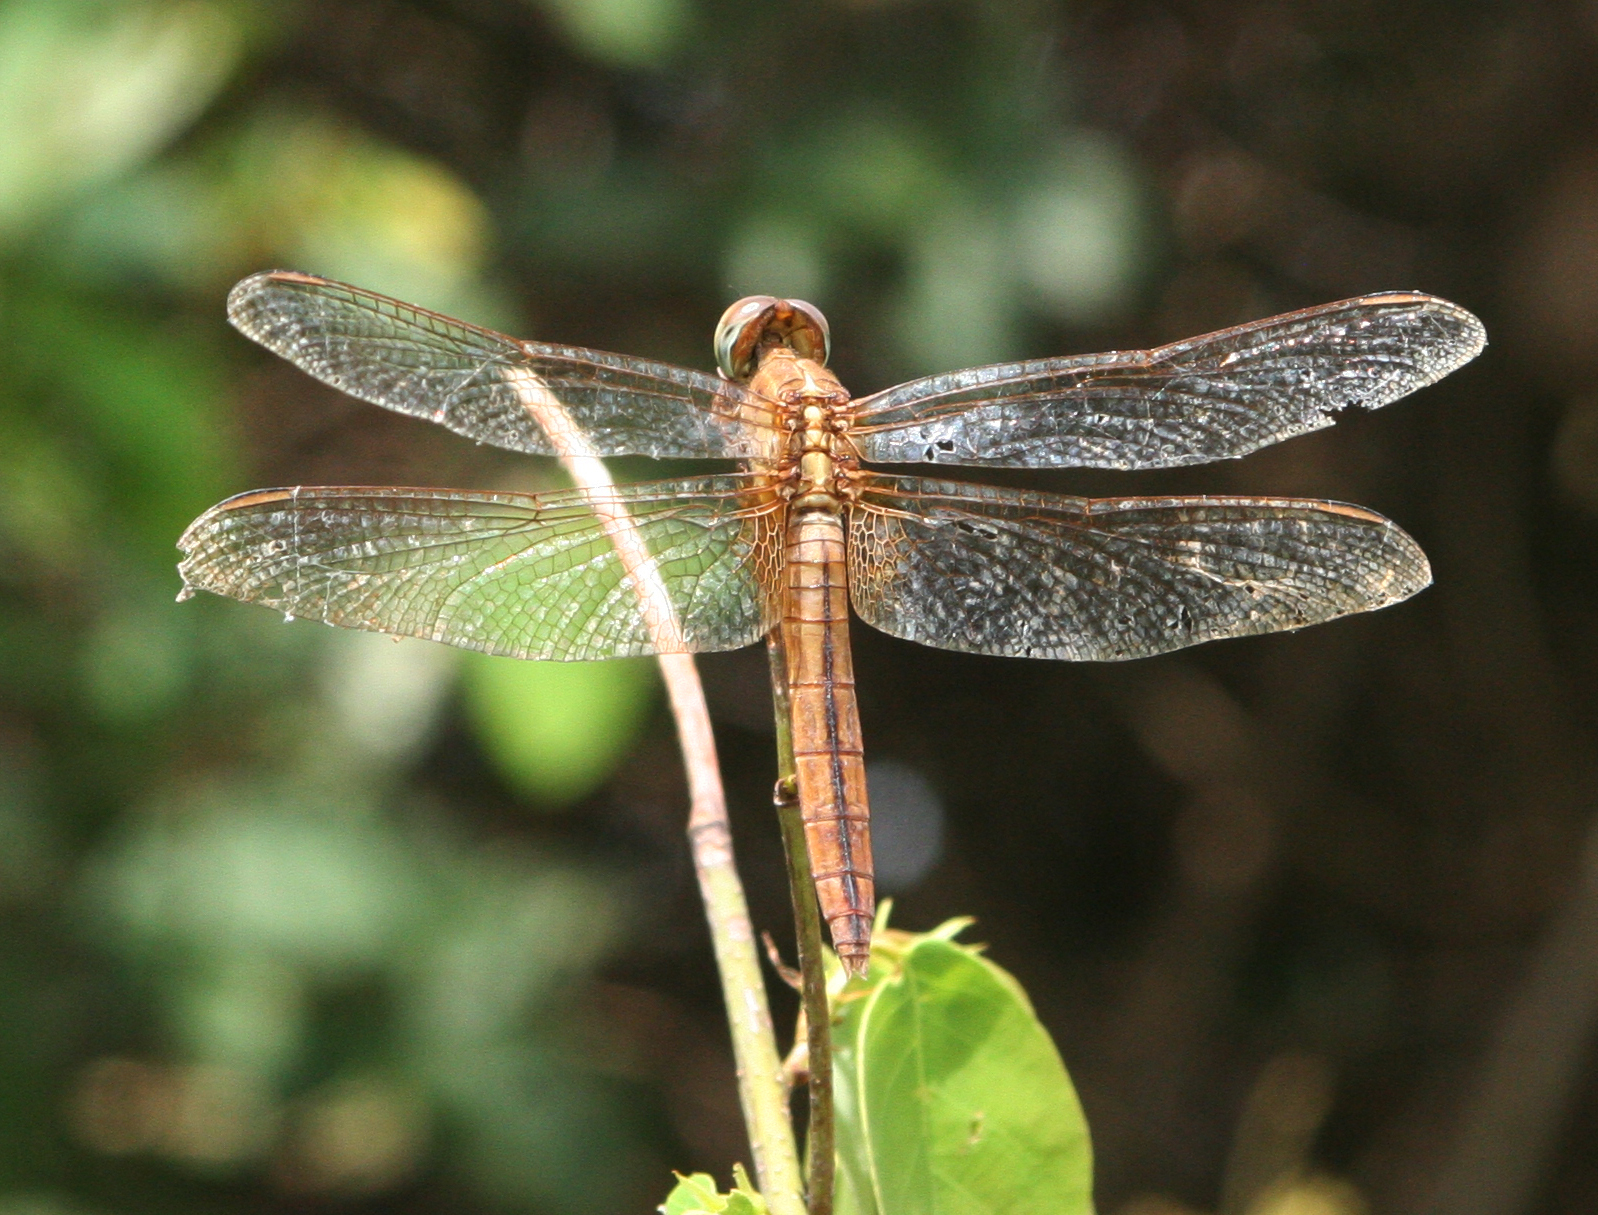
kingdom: Animalia
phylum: Arthropoda
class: Insecta
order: Odonata
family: Libellulidae
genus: Crocothemis
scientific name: Crocothemis servilia
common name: Scarlet skimmer
